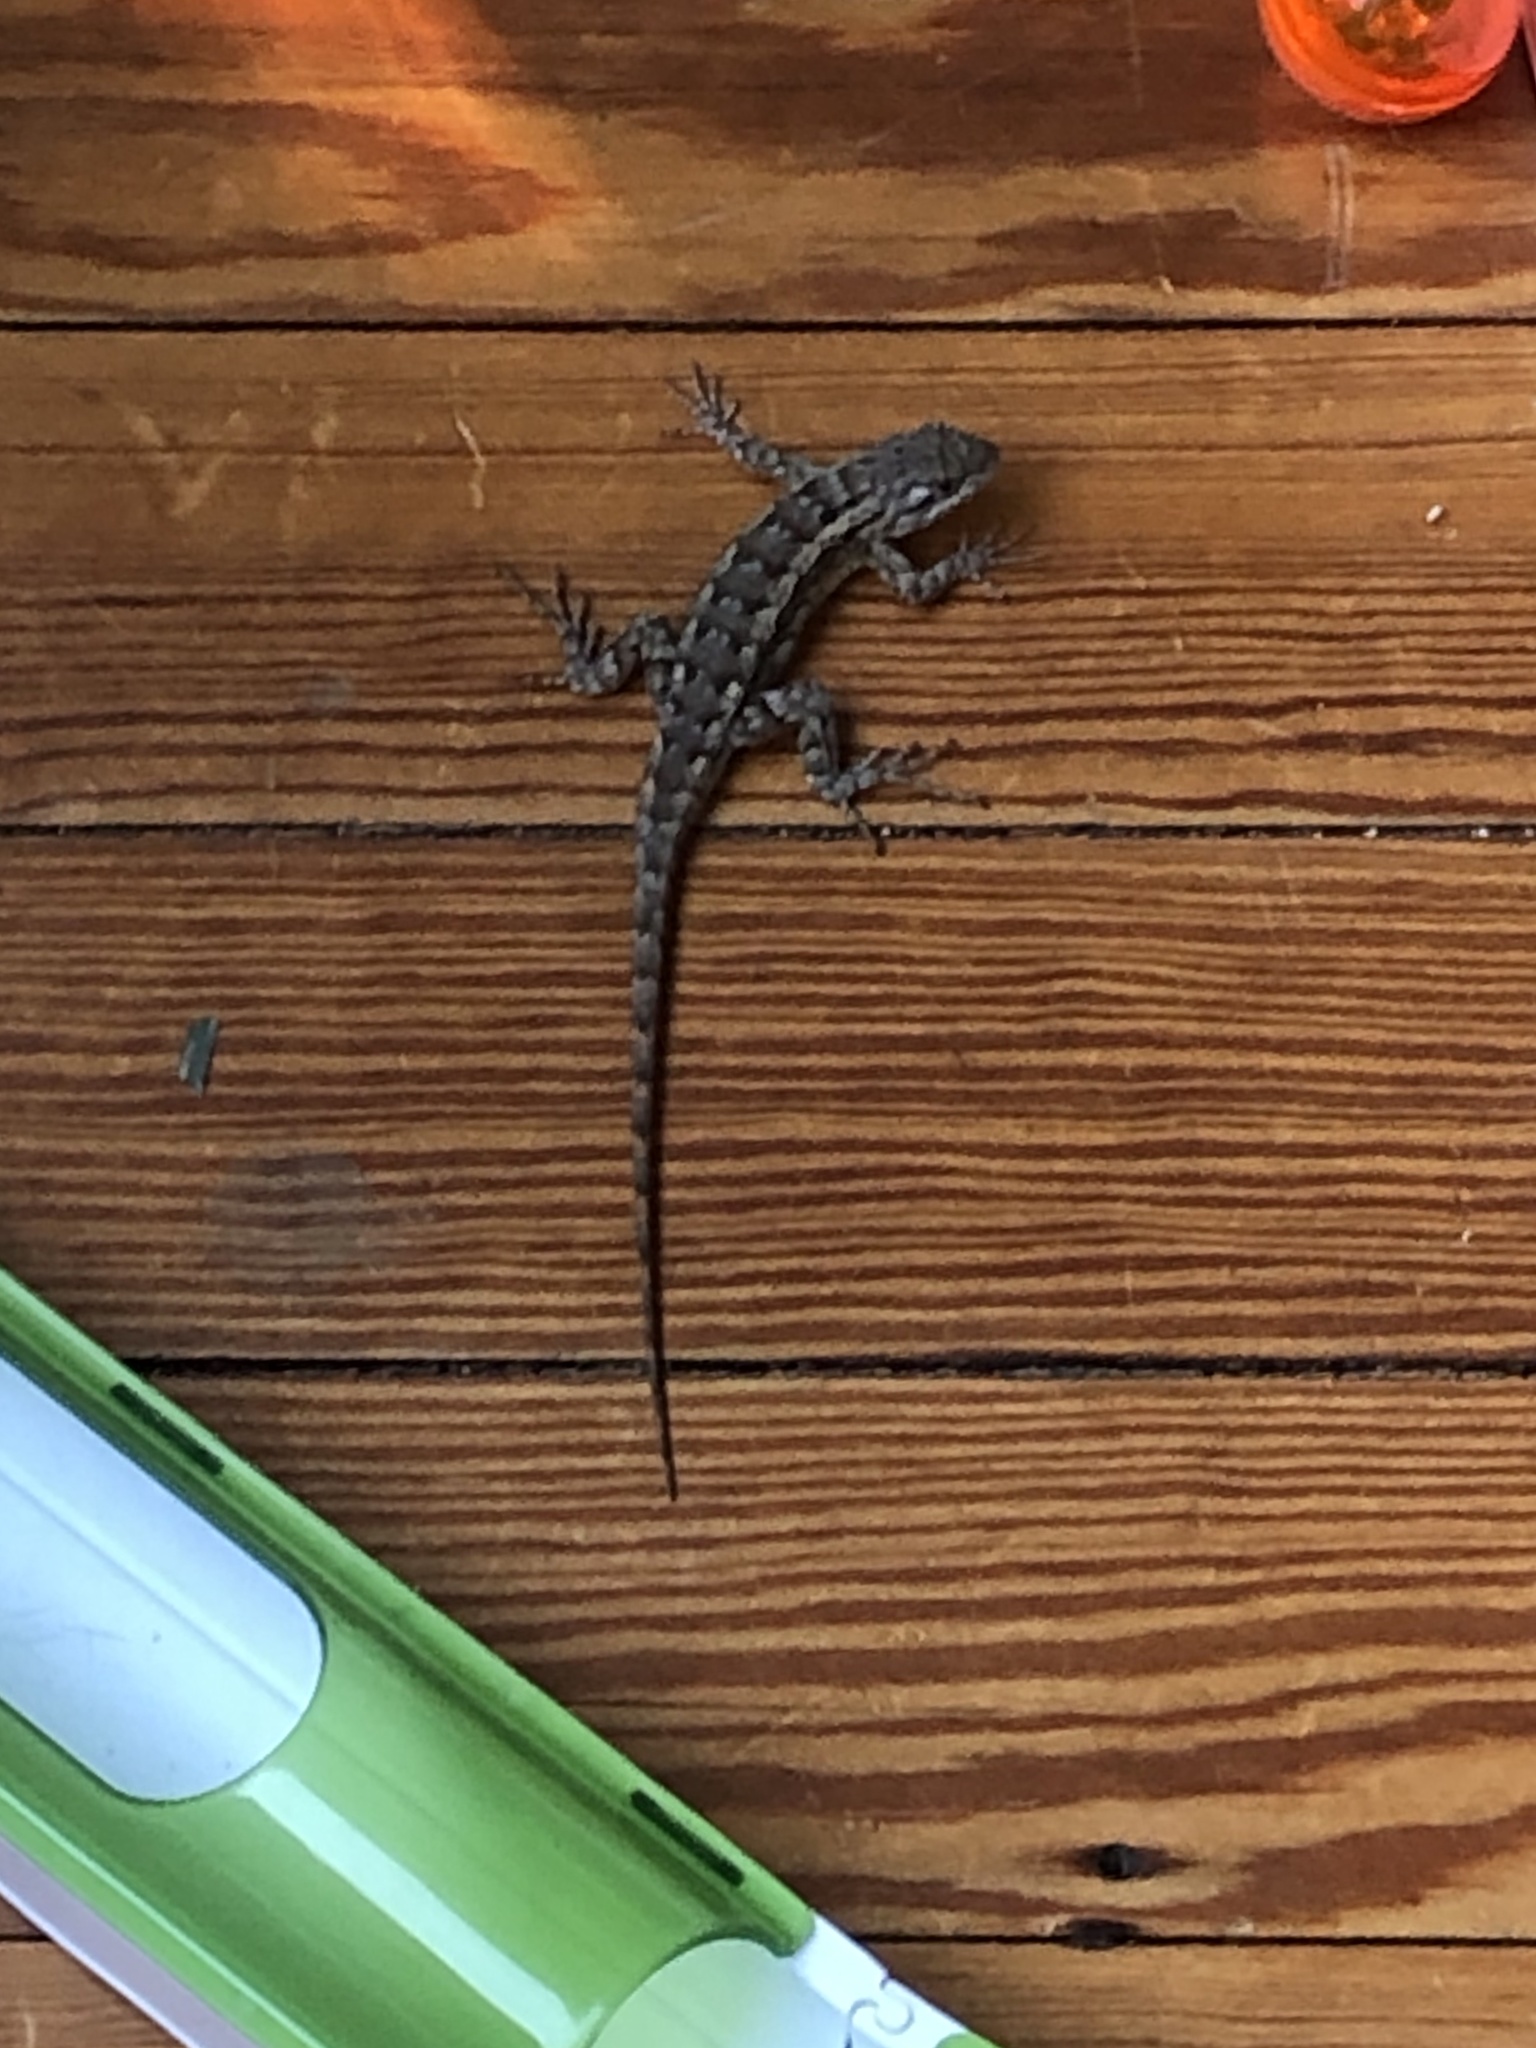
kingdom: Animalia
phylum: Chordata
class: Squamata
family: Phrynosomatidae
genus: Sceloporus
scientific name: Sceloporus olivaceus
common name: Texas spiny lizard
